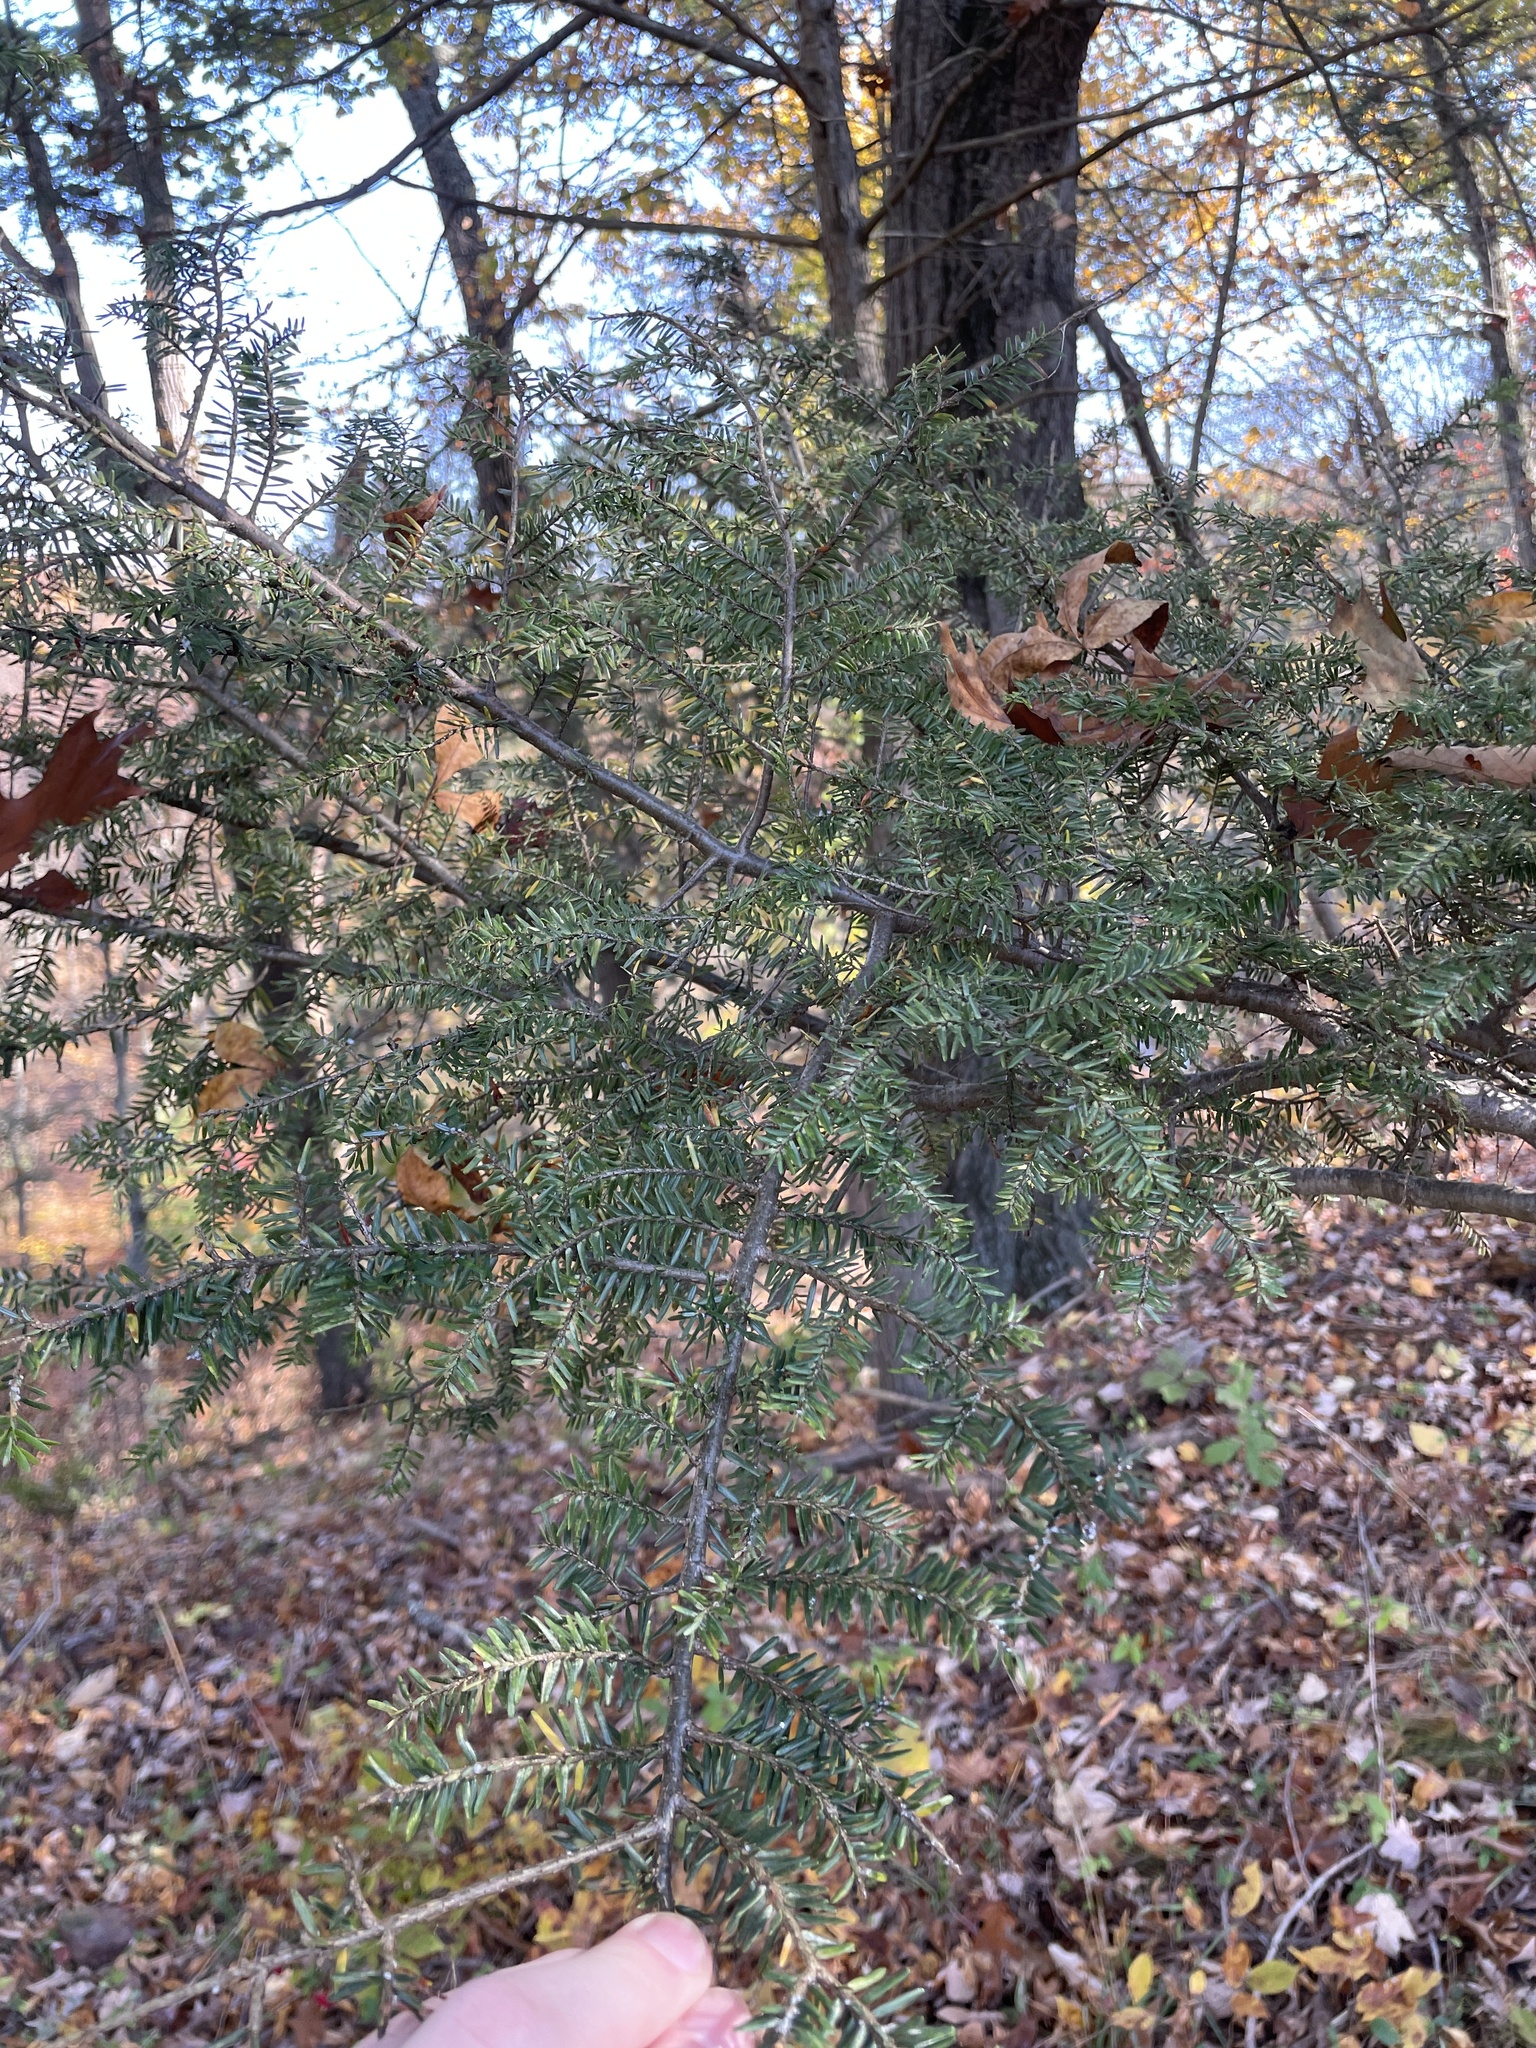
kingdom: Plantae
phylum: Tracheophyta
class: Pinopsida
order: Pinales
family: Pinaceae
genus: Tsuga
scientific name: Tsuga canadensis
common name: Eastern hemlock
